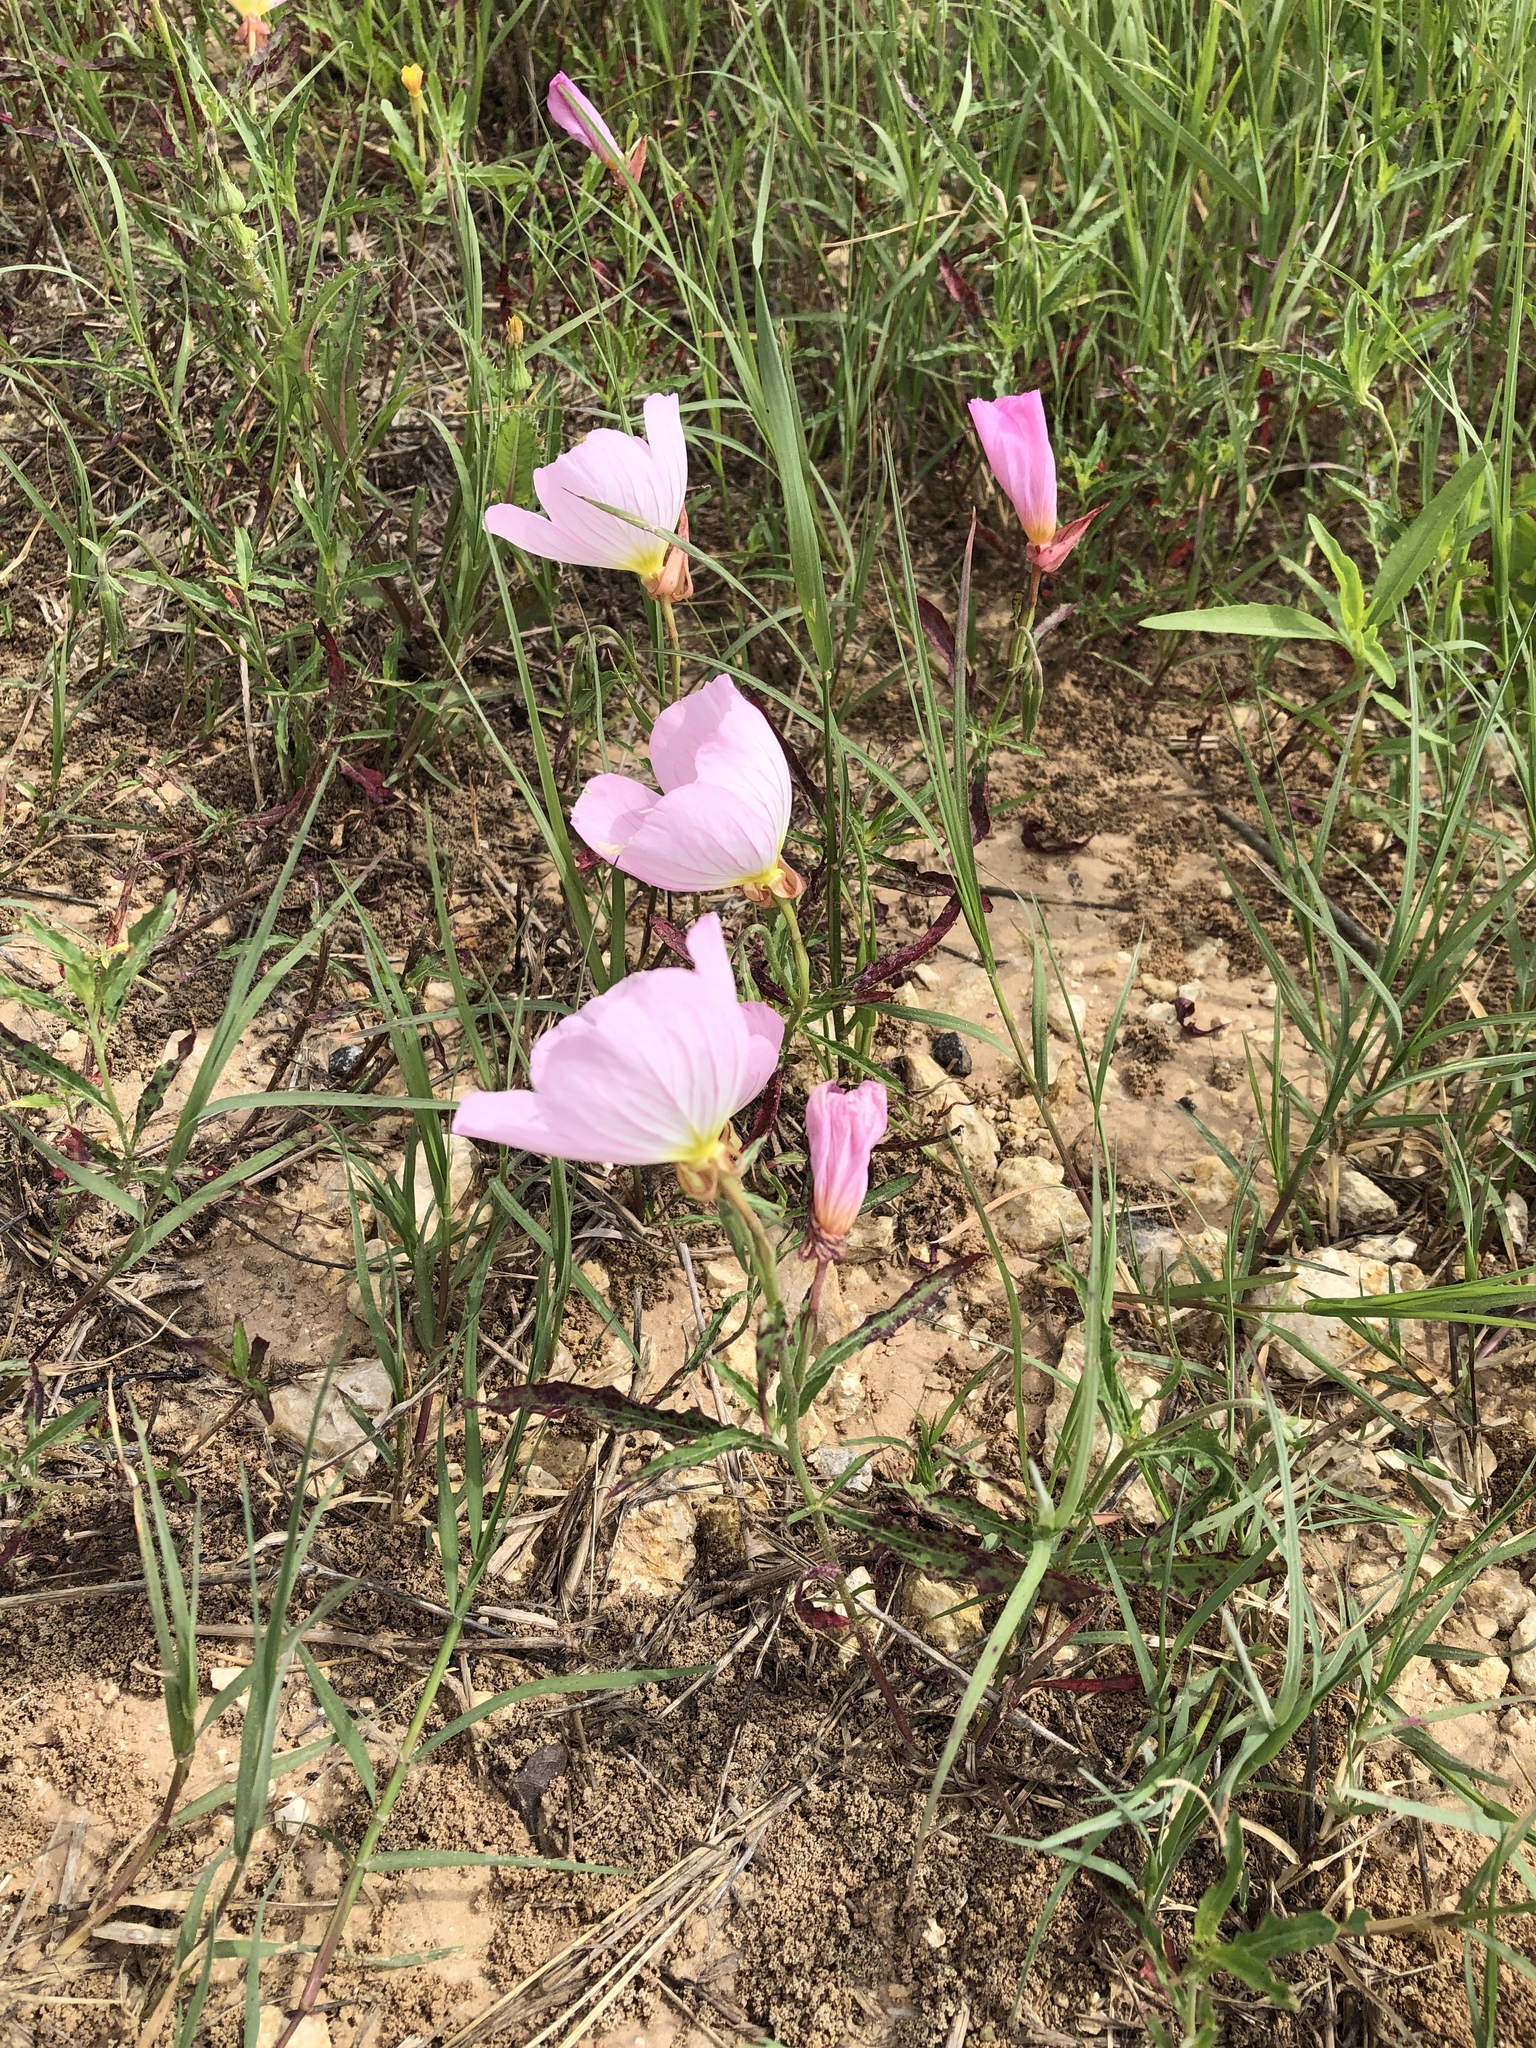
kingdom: Plantae
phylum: Tracheophyta
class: Magnoliopsida
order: Myrtales
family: Onagraceae
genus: Oenothera
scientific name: Oenothera speciosa
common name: White evening-primrose
